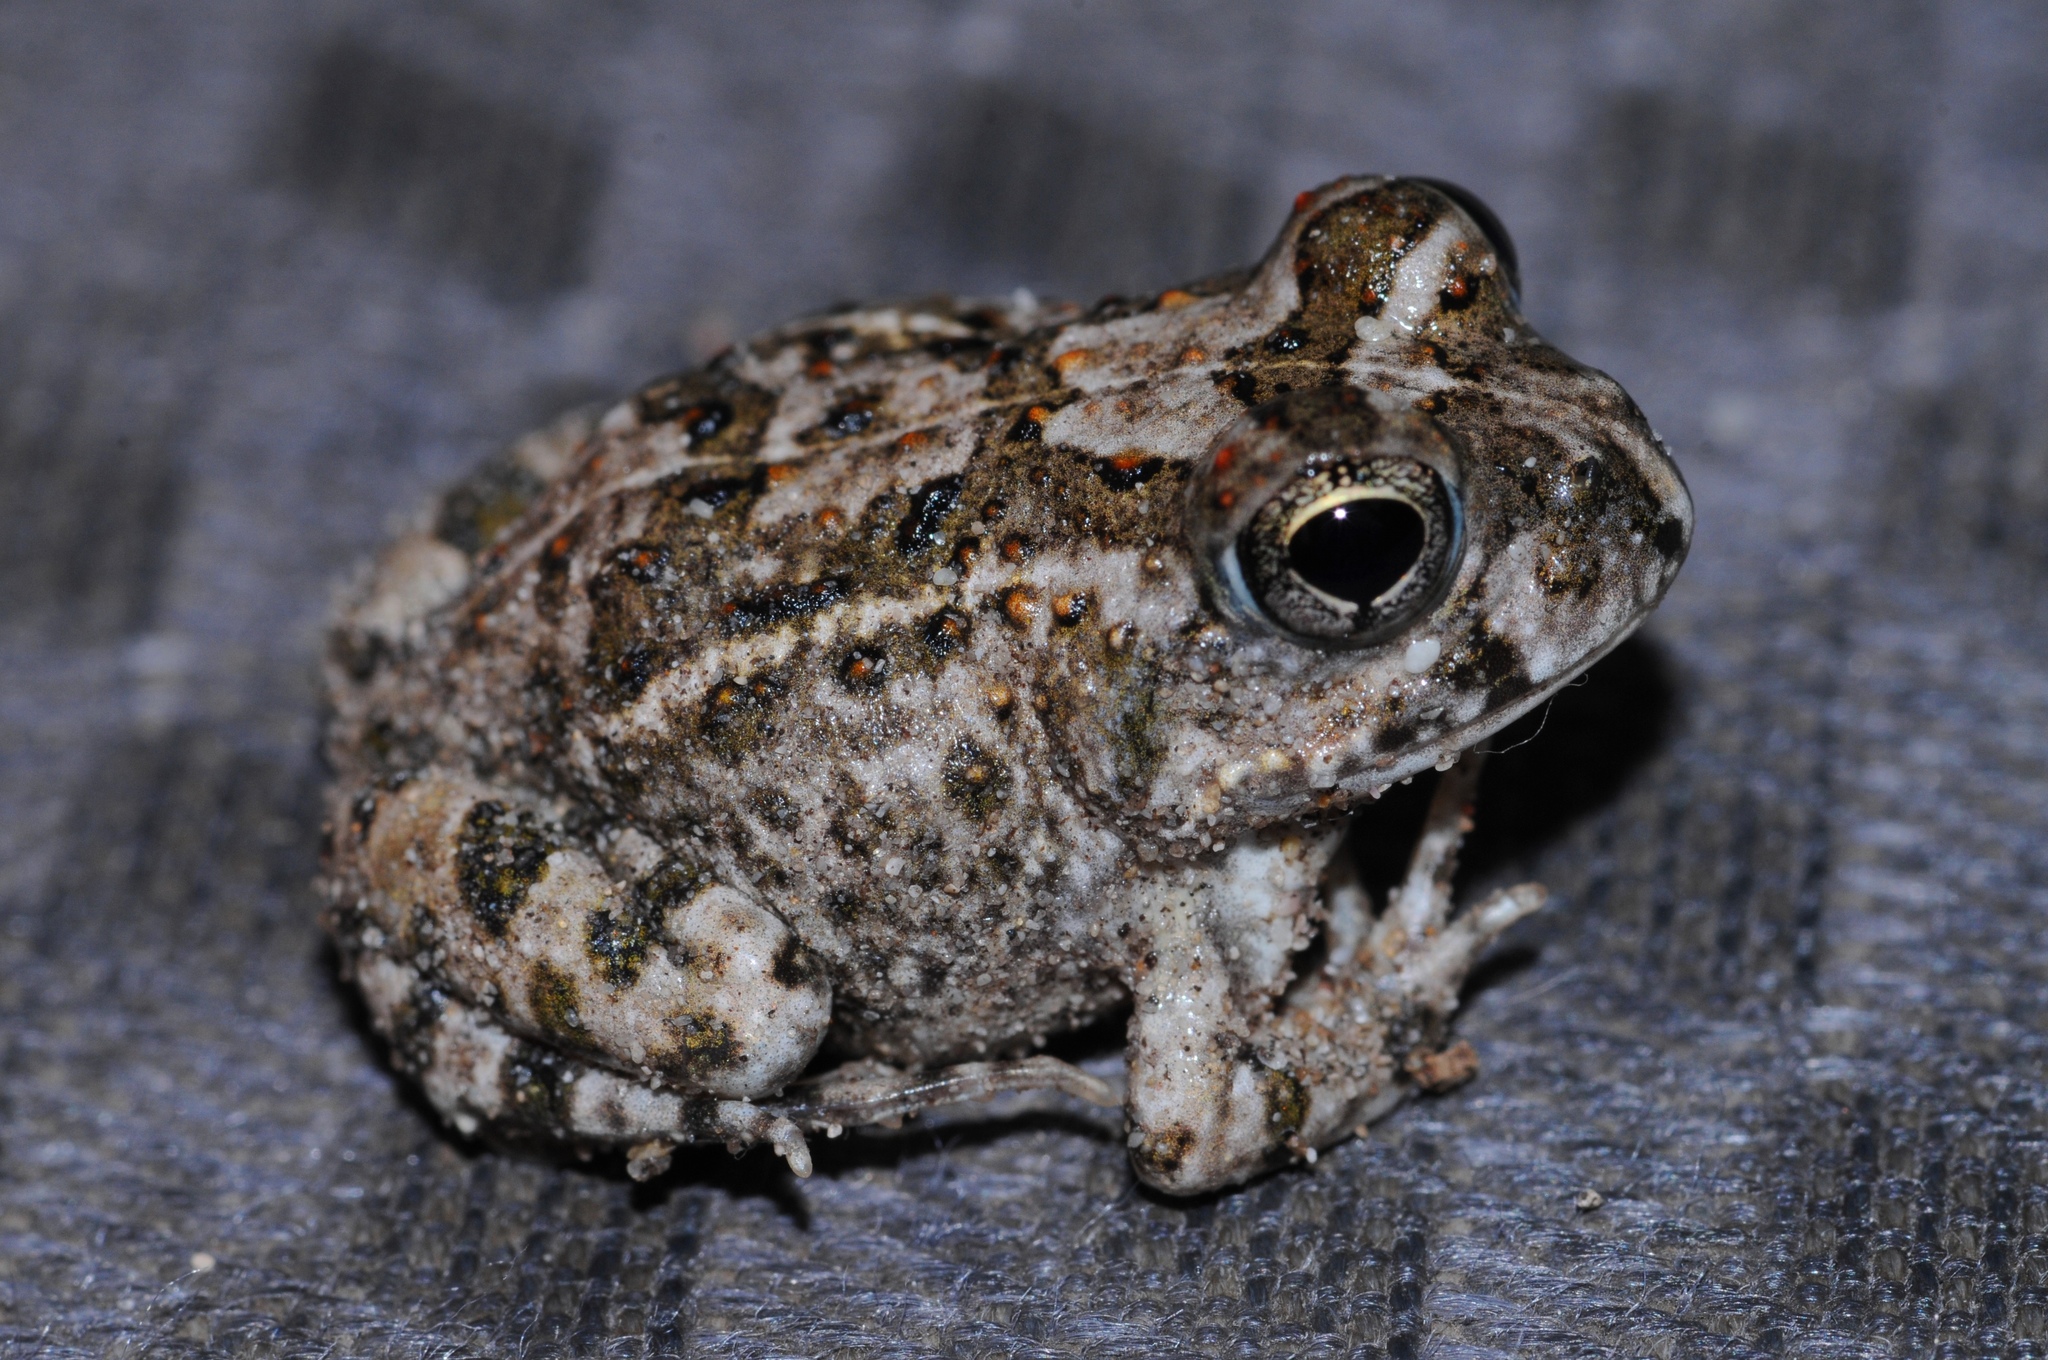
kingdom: Animalia
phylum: Chordata
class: Amphibia
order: Anura
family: Pyxicephalidae
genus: Tomopterna
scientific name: Tomopterna delalandii
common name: Delalande's burrowing bullfrog
